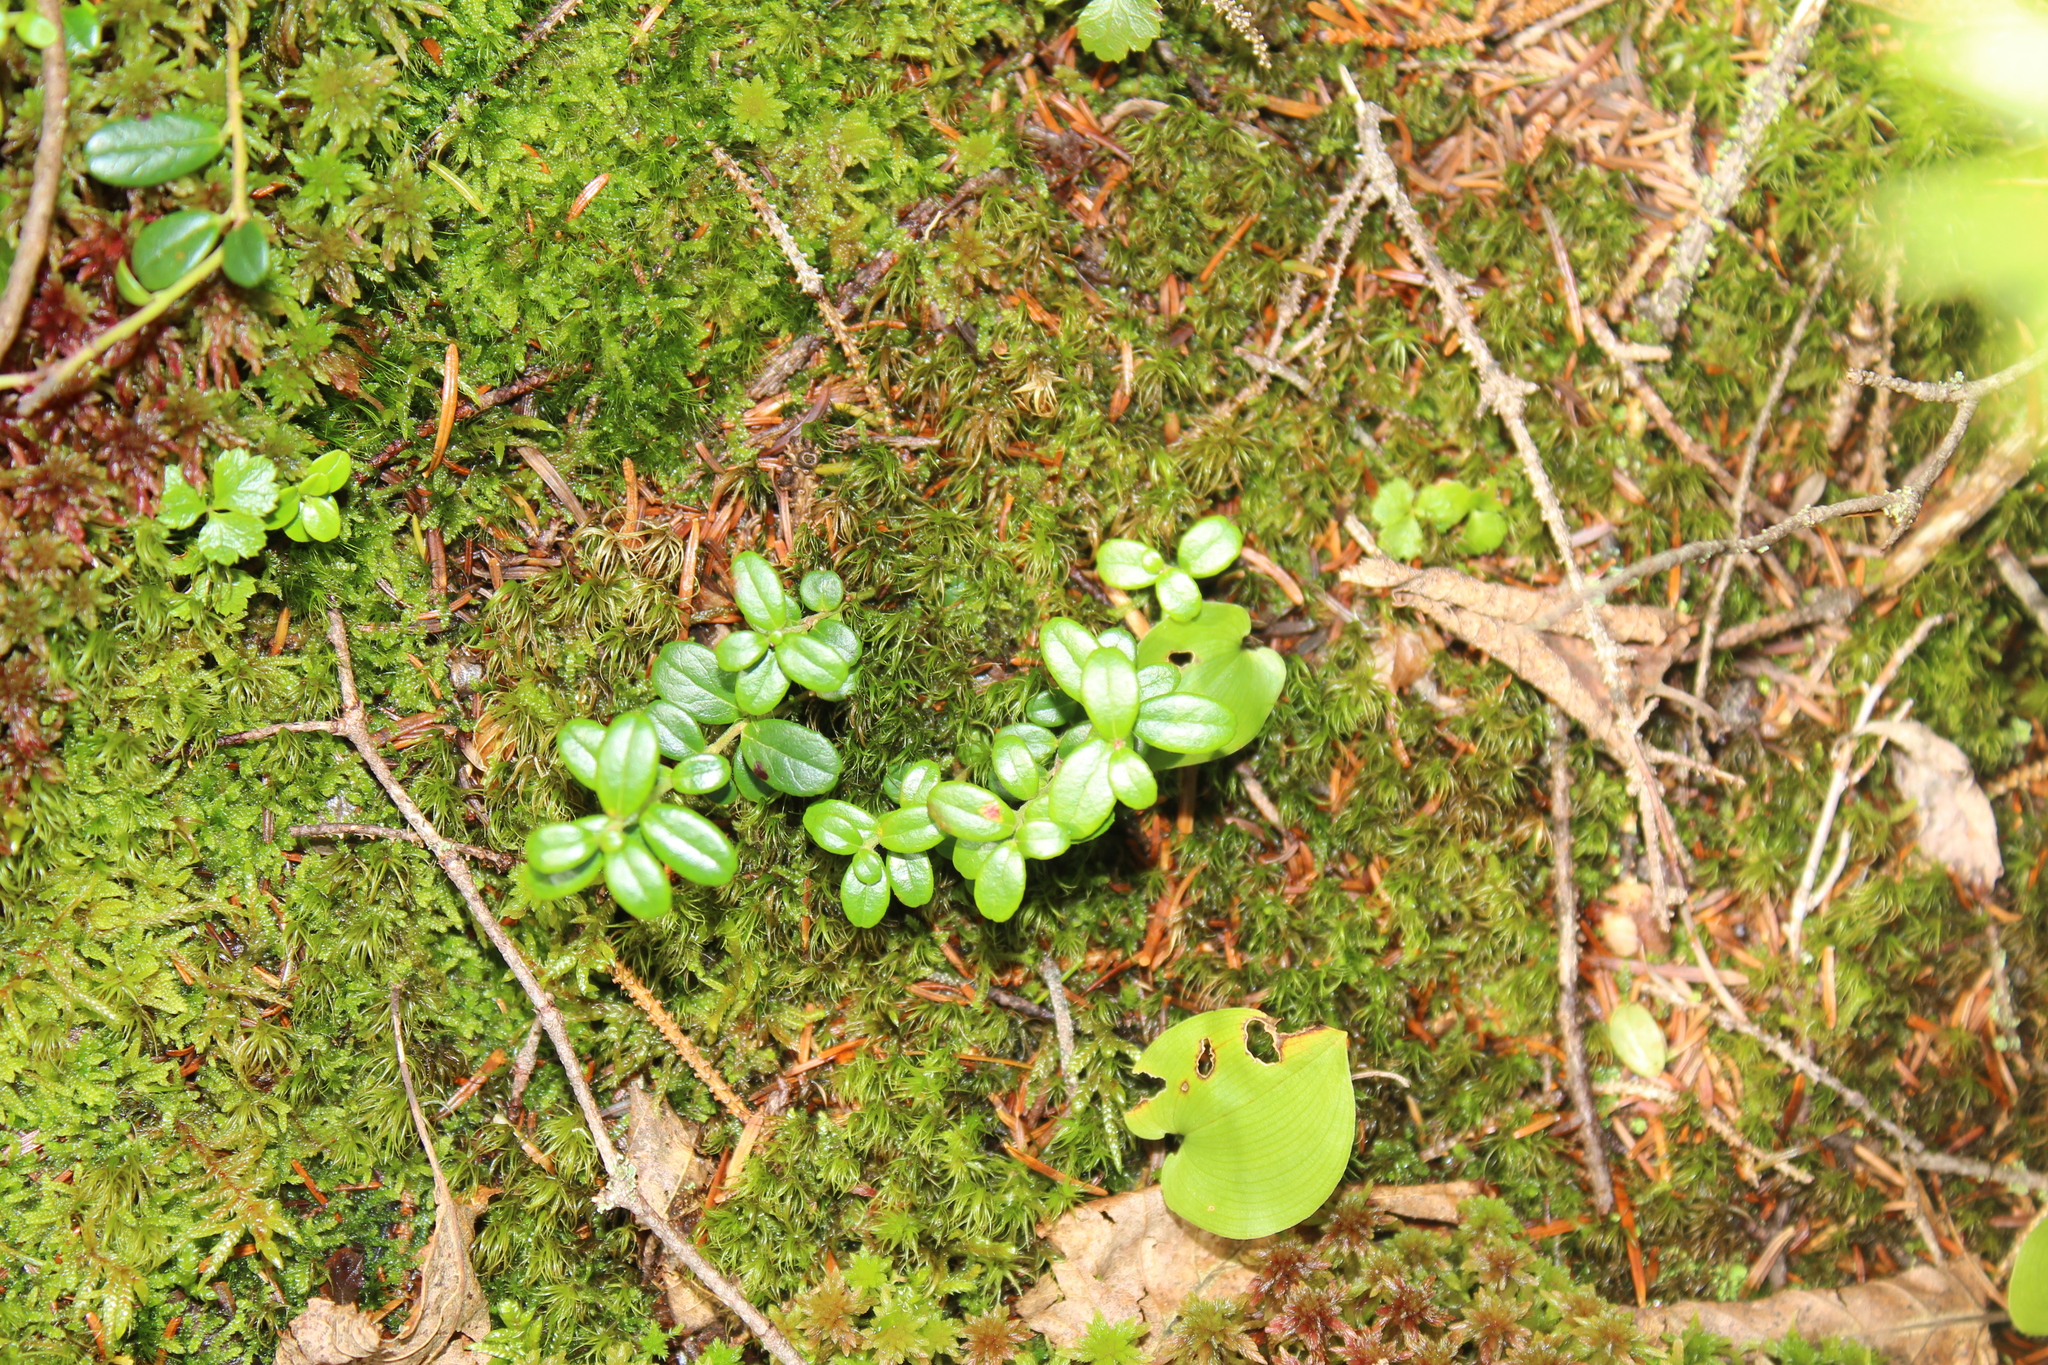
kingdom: Plantae
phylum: Tracheophyta
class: Magnoliopsida
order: Ericales
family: Ericaceae
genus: Gaultheria
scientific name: Gaultheria hispidula
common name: Cancer wintergreen
